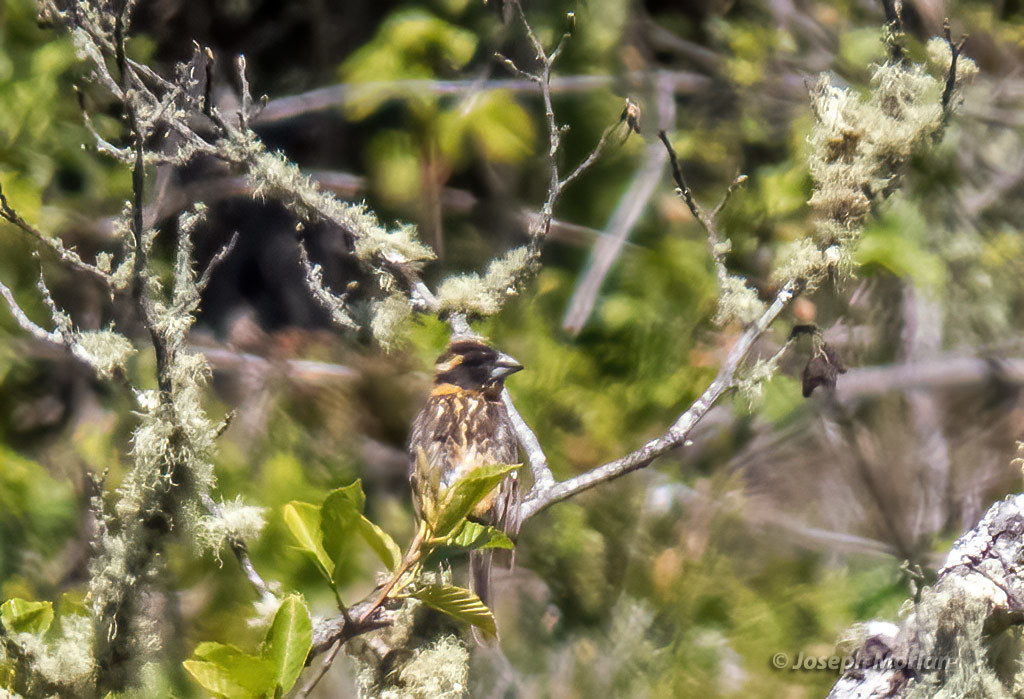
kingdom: Animalia
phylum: Chordata
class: Aves
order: Passeriformes
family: Cardinalidae
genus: Pheucticus
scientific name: Pheucticus melanocephalus
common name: Black-headed grosbeak
